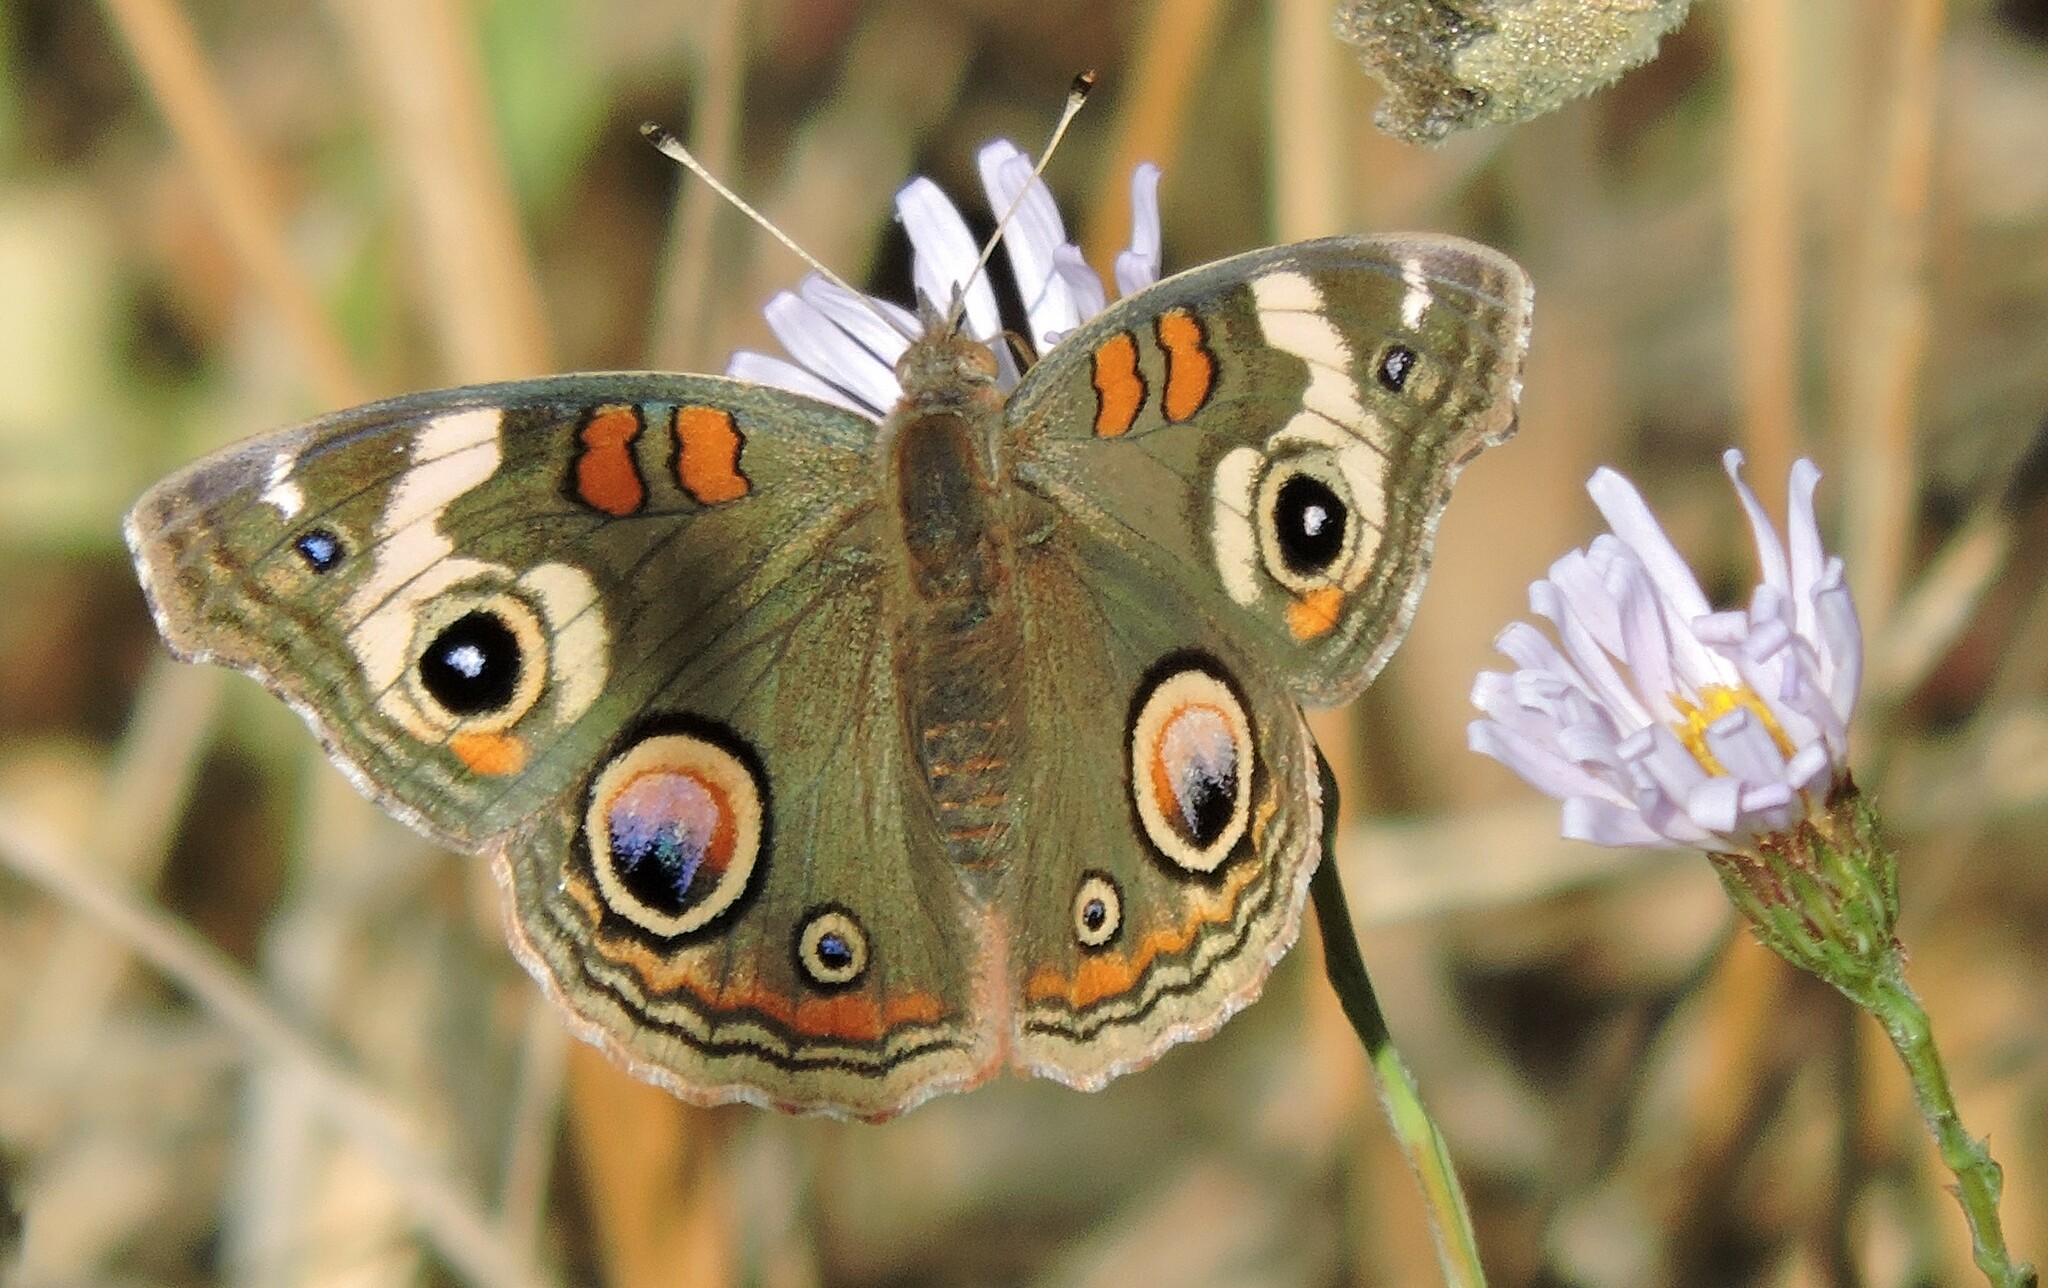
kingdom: Animalia
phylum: Arthropoda
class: Insecta
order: Lepidoptera
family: Nymphalidae
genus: Junonia
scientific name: Junonia grisea
